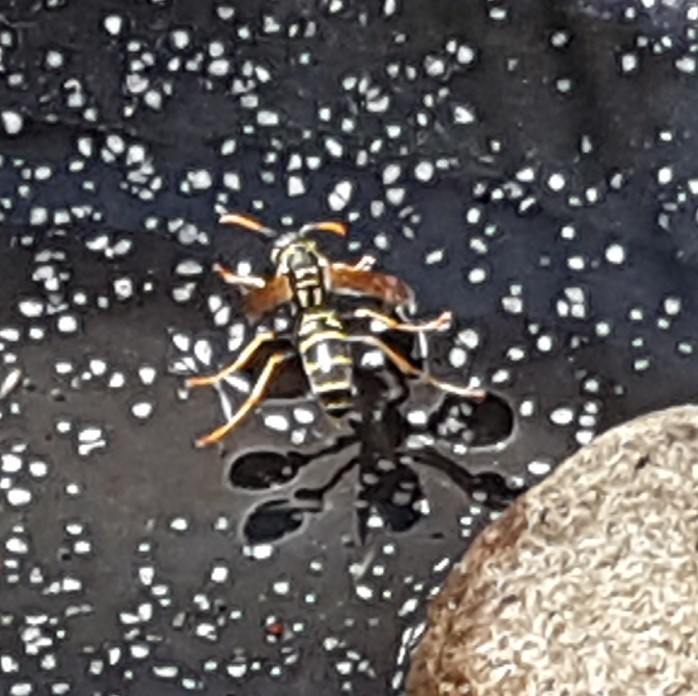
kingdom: Animalia
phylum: Arthropoda
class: Insecta
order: Hymenoptera
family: Eumenidae
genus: Polistes
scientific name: Polistes dominula
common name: Paper wasp
